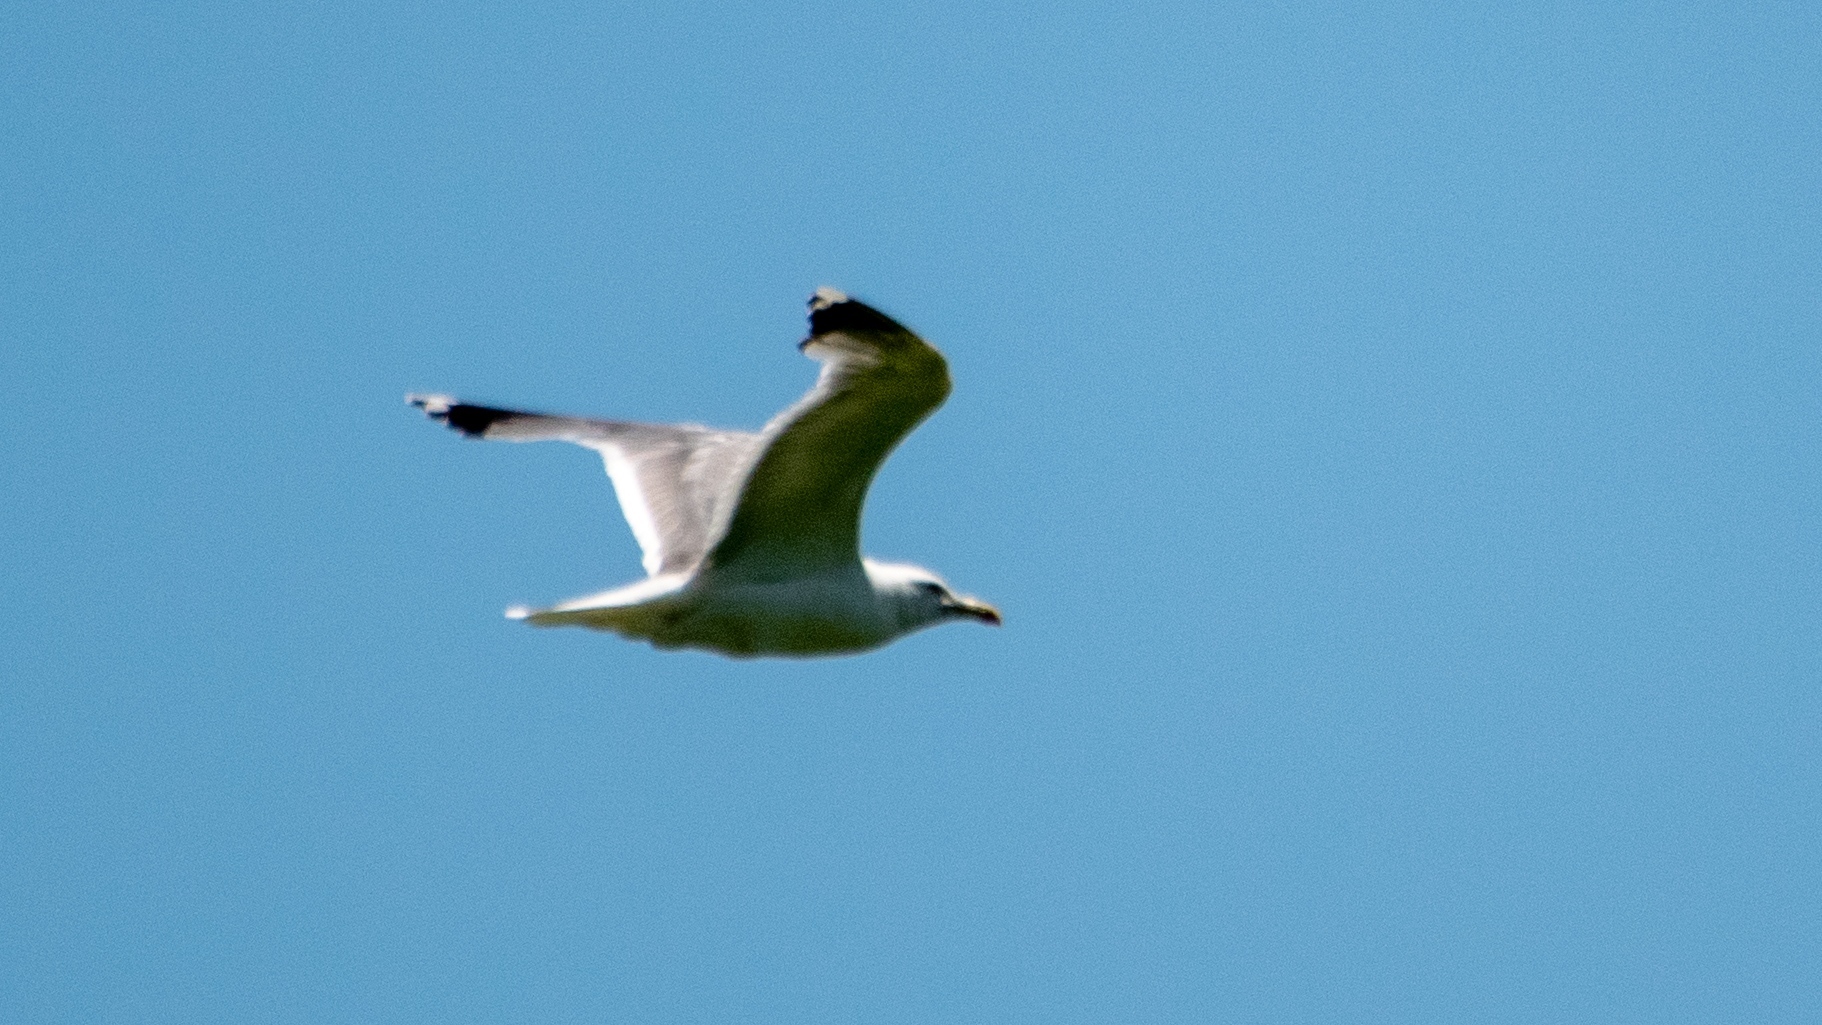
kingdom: Animalia
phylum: Chordata
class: Aves
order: Charadriiformes
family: Laridae
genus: Larus
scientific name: Larus michahellis
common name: Yellow-legged gull
